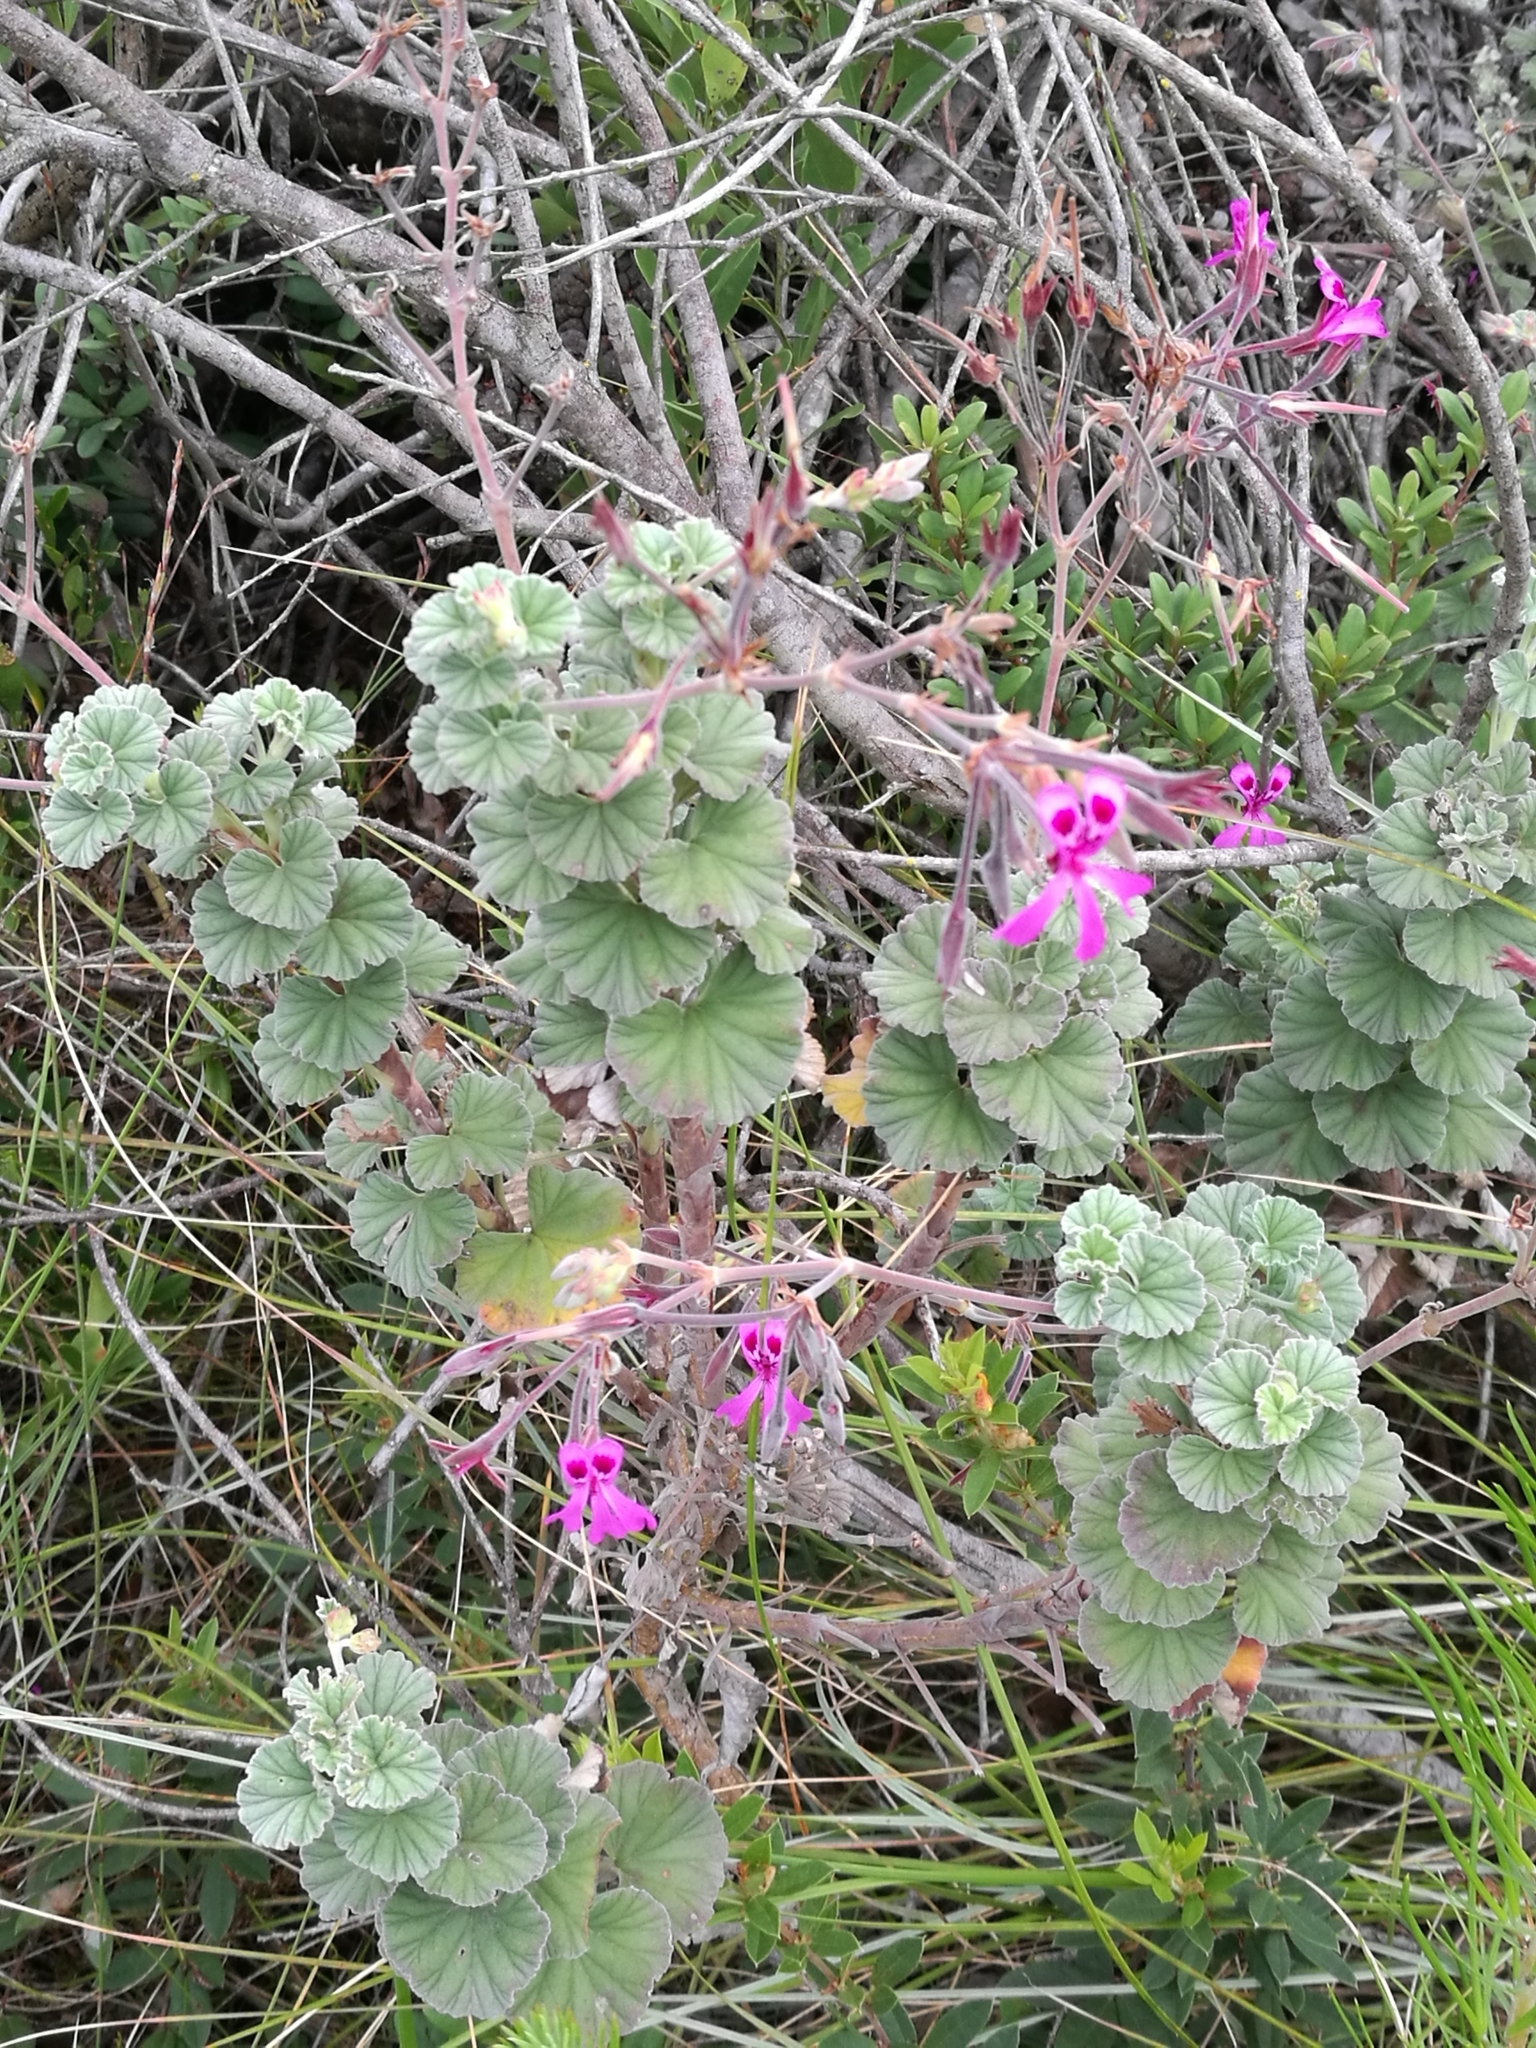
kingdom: Plantae
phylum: Tracheophyta
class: Magnoliopsida
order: Geraniales
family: Geraniaceae
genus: Pelargonium
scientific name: Pelargonium reniforme
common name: Kidney-leaf pelargonium
